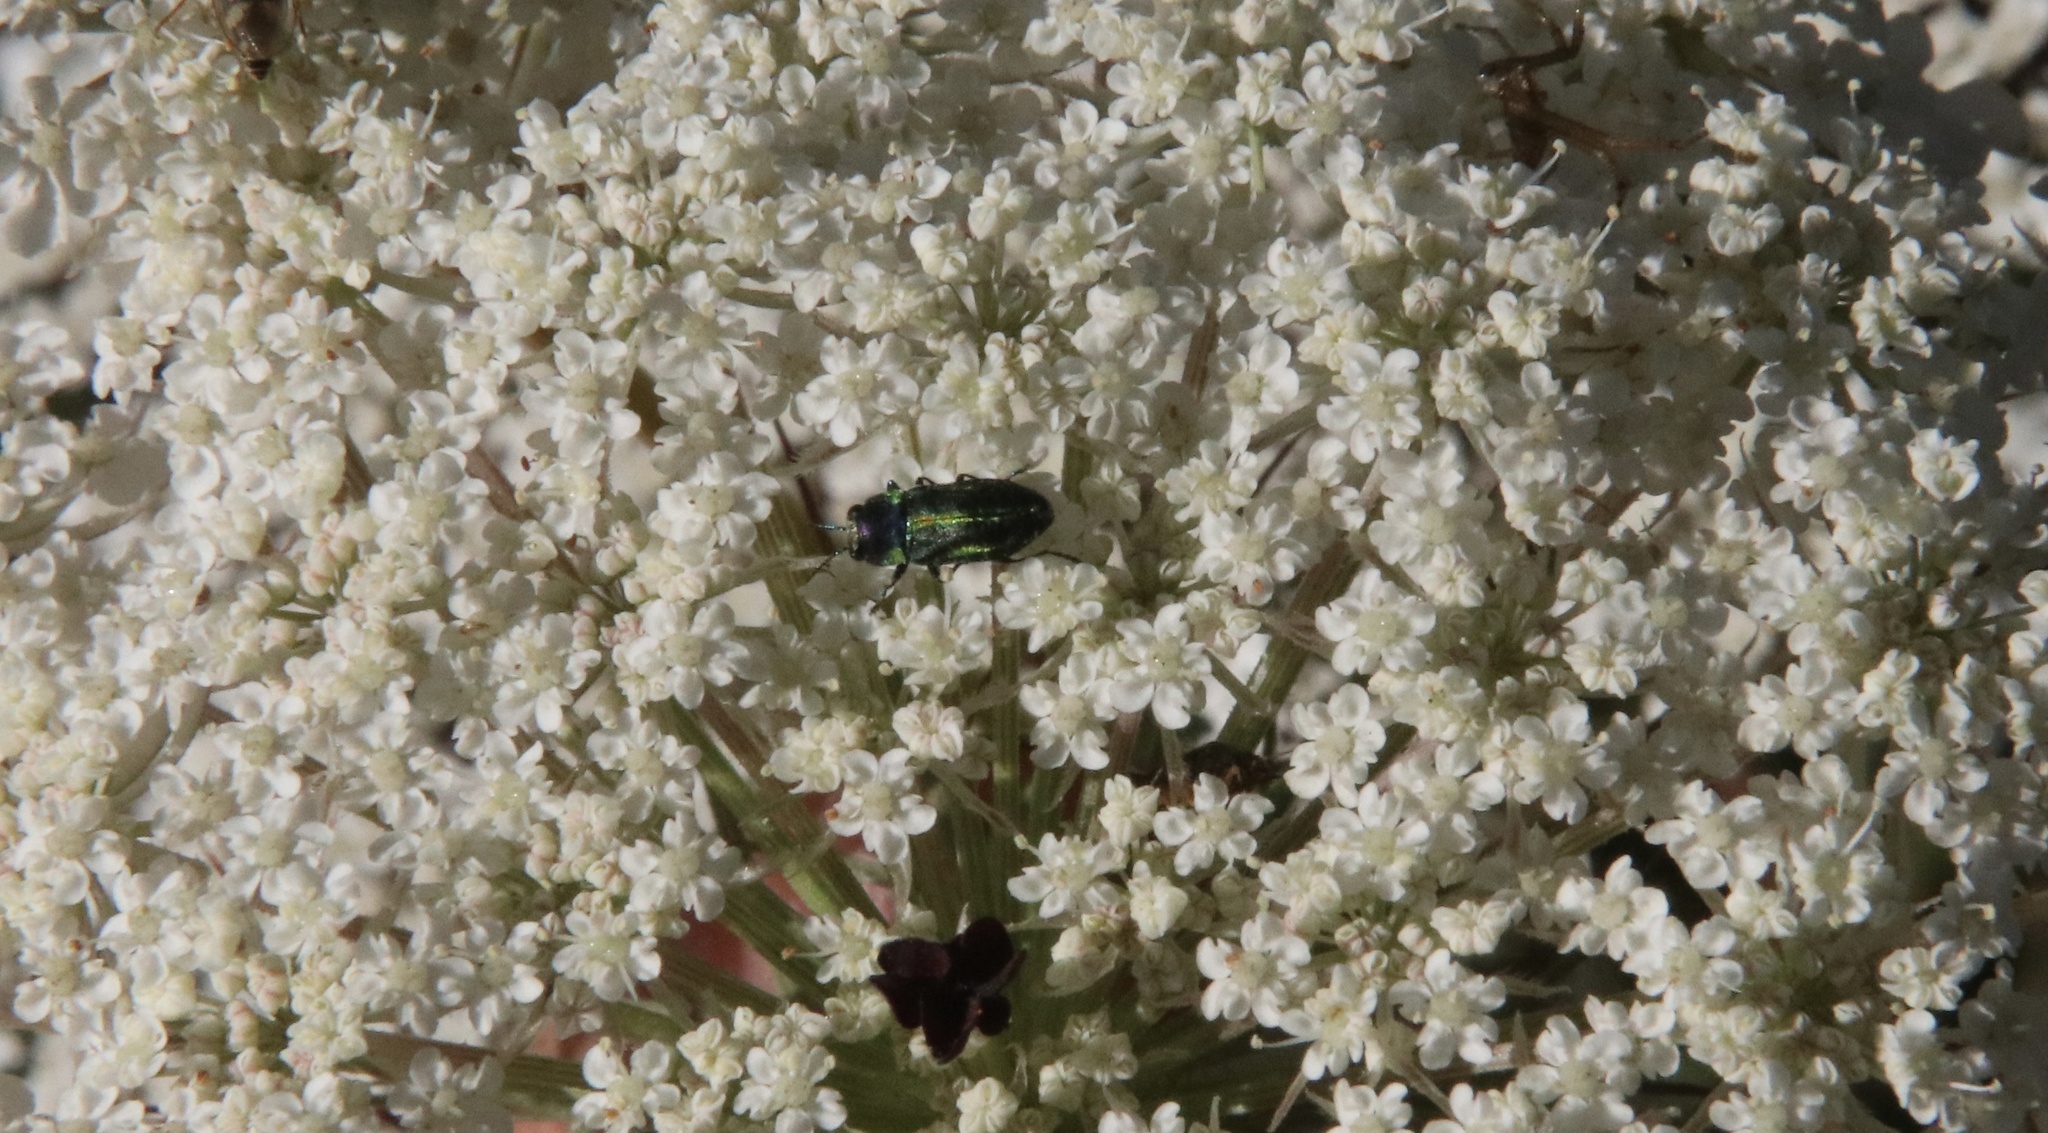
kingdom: Animalia
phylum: Arthropoda
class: Insecta
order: Coleoptera
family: Buprestidae
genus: Bilyaxia
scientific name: Bilyaxia cordillerae
